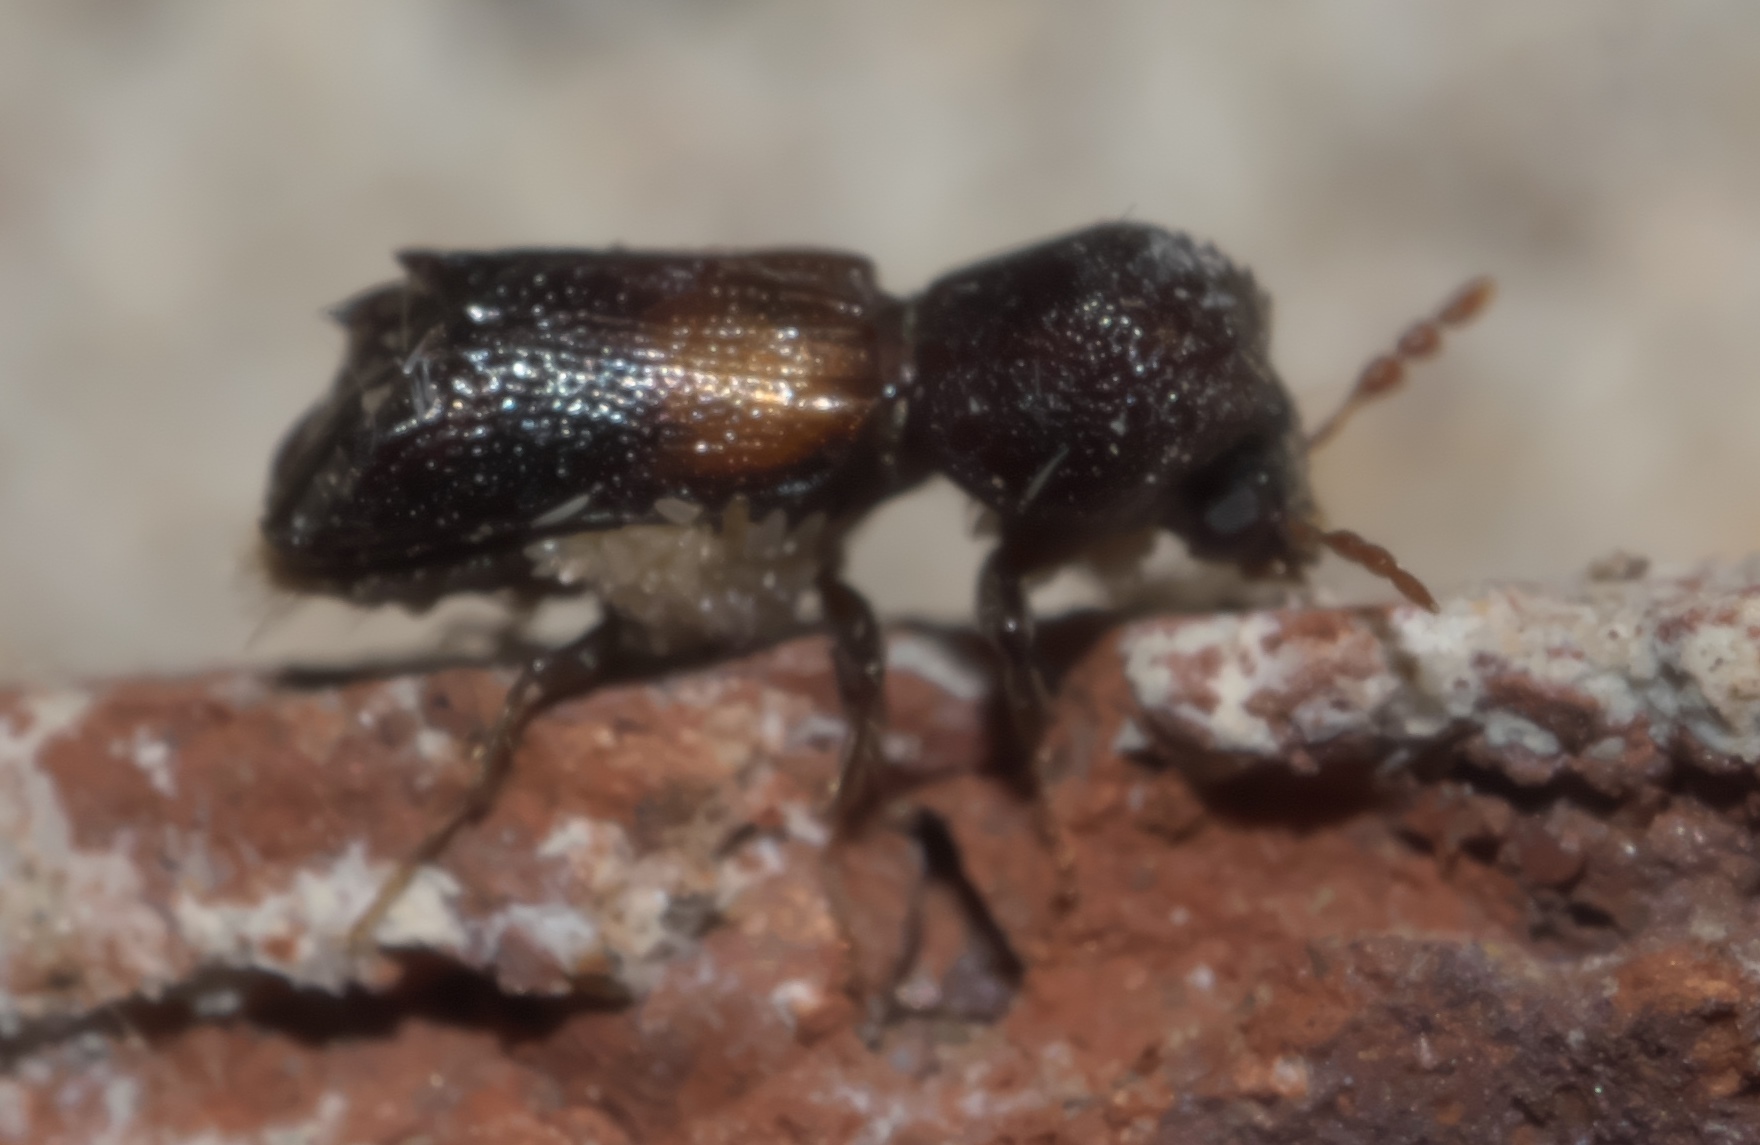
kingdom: Animalia
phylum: Arthropoda
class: Insecta
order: Coleoptera
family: Bostrichidae
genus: Xylobiops
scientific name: Xylobiops basilaris
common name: Red-shouldered bostrichid
